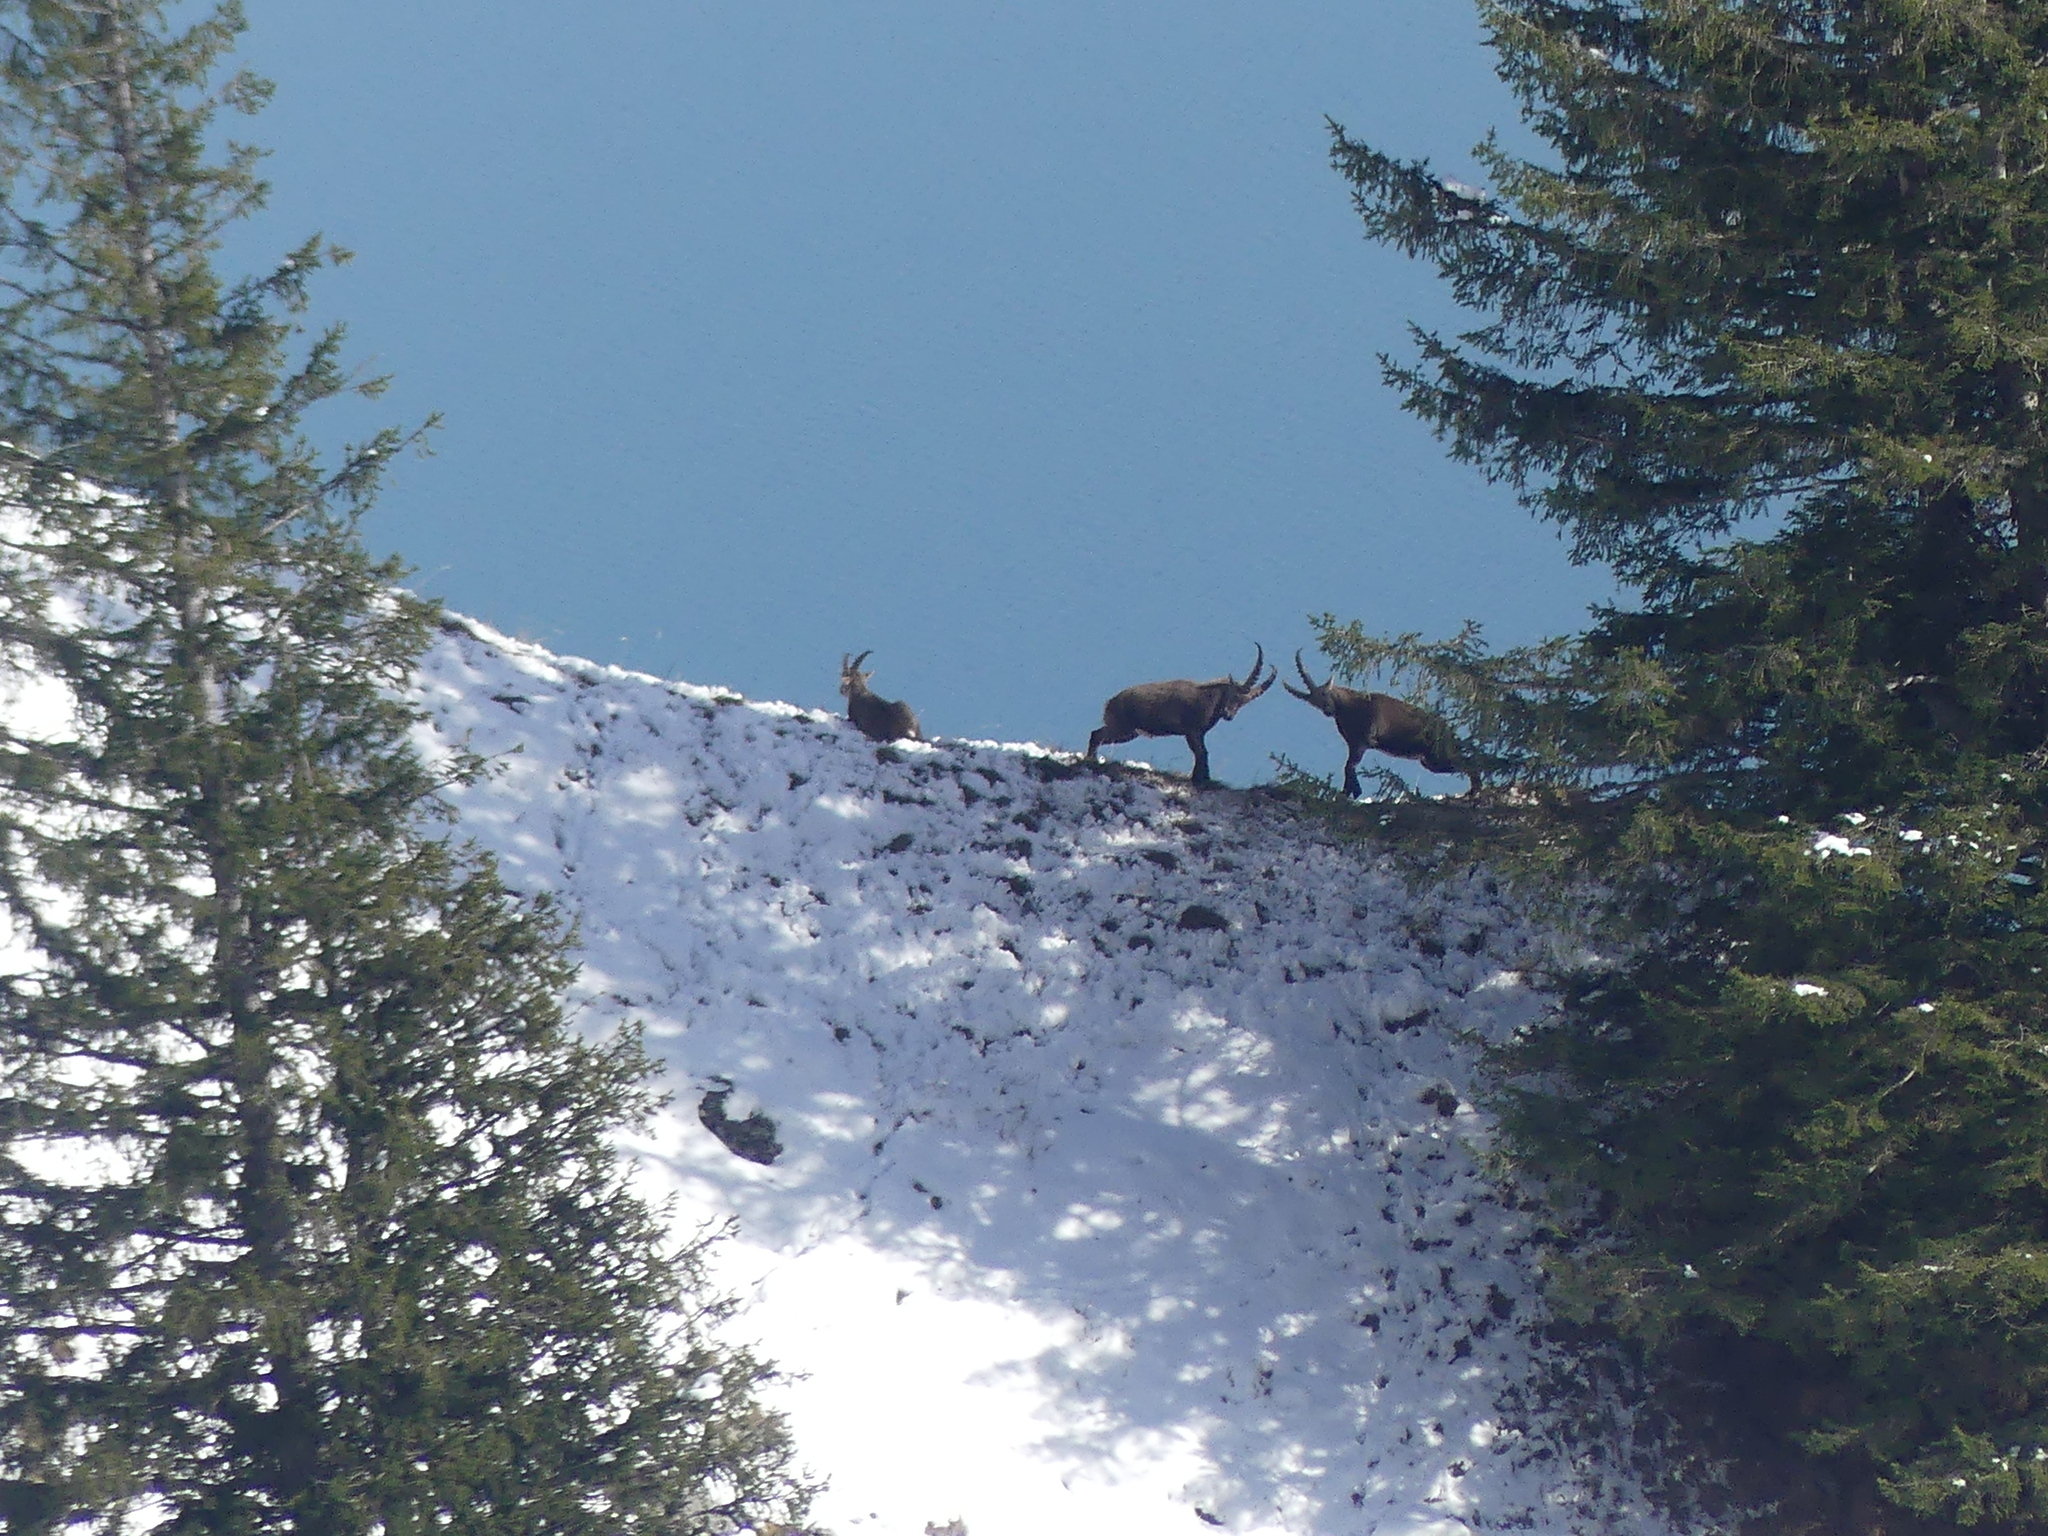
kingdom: Animalia
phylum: Chordata
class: Mammalia
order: Artiodactyla
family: Bovidae
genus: Capra
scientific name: Capra ibex
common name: Alpine ibex
